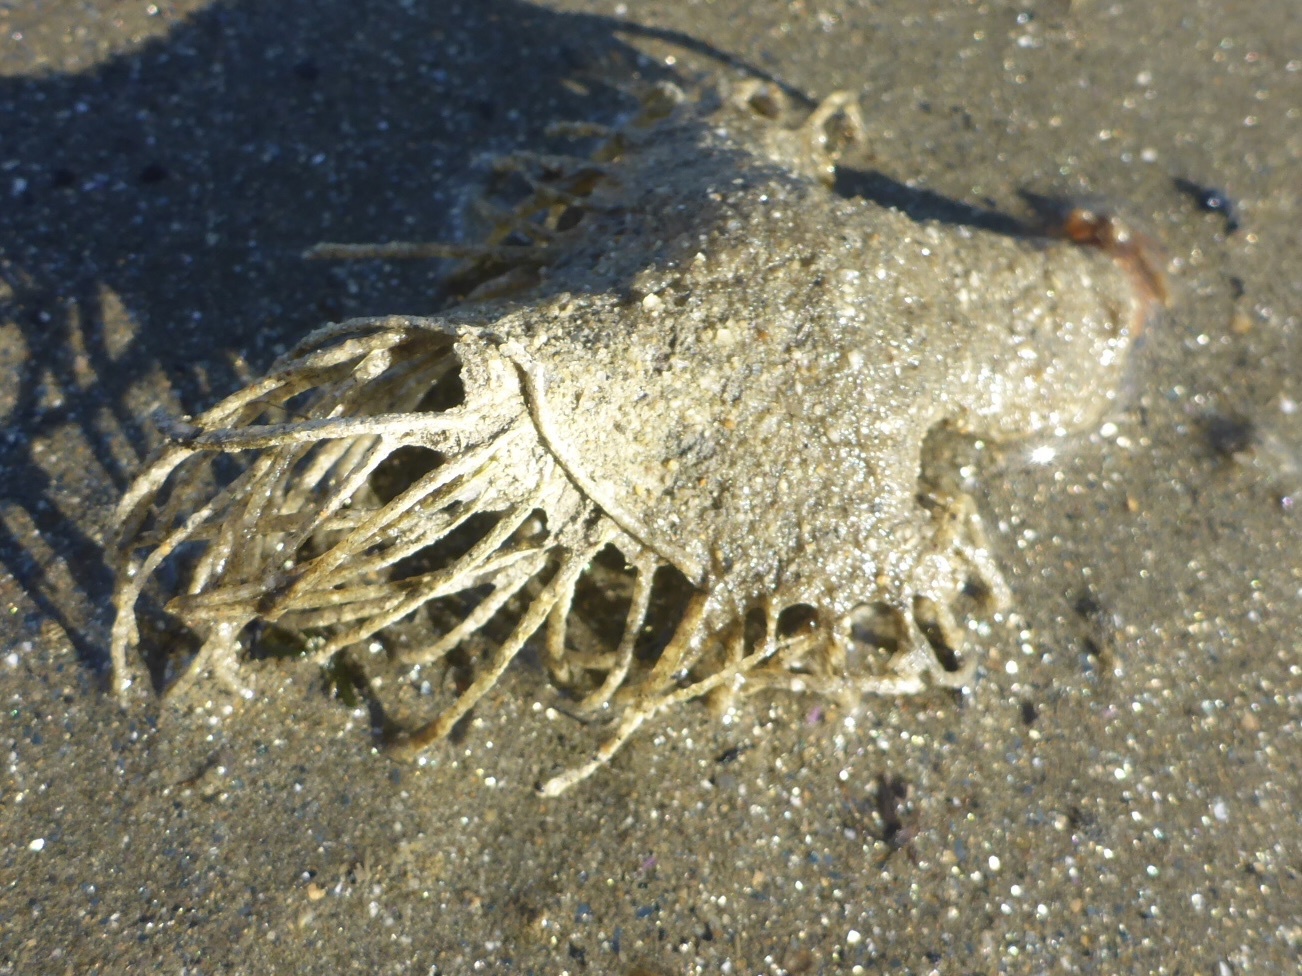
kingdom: Animalia
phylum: Annelida
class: Polychaeta
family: Terebellidae
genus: Pista
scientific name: Pista pacifica
